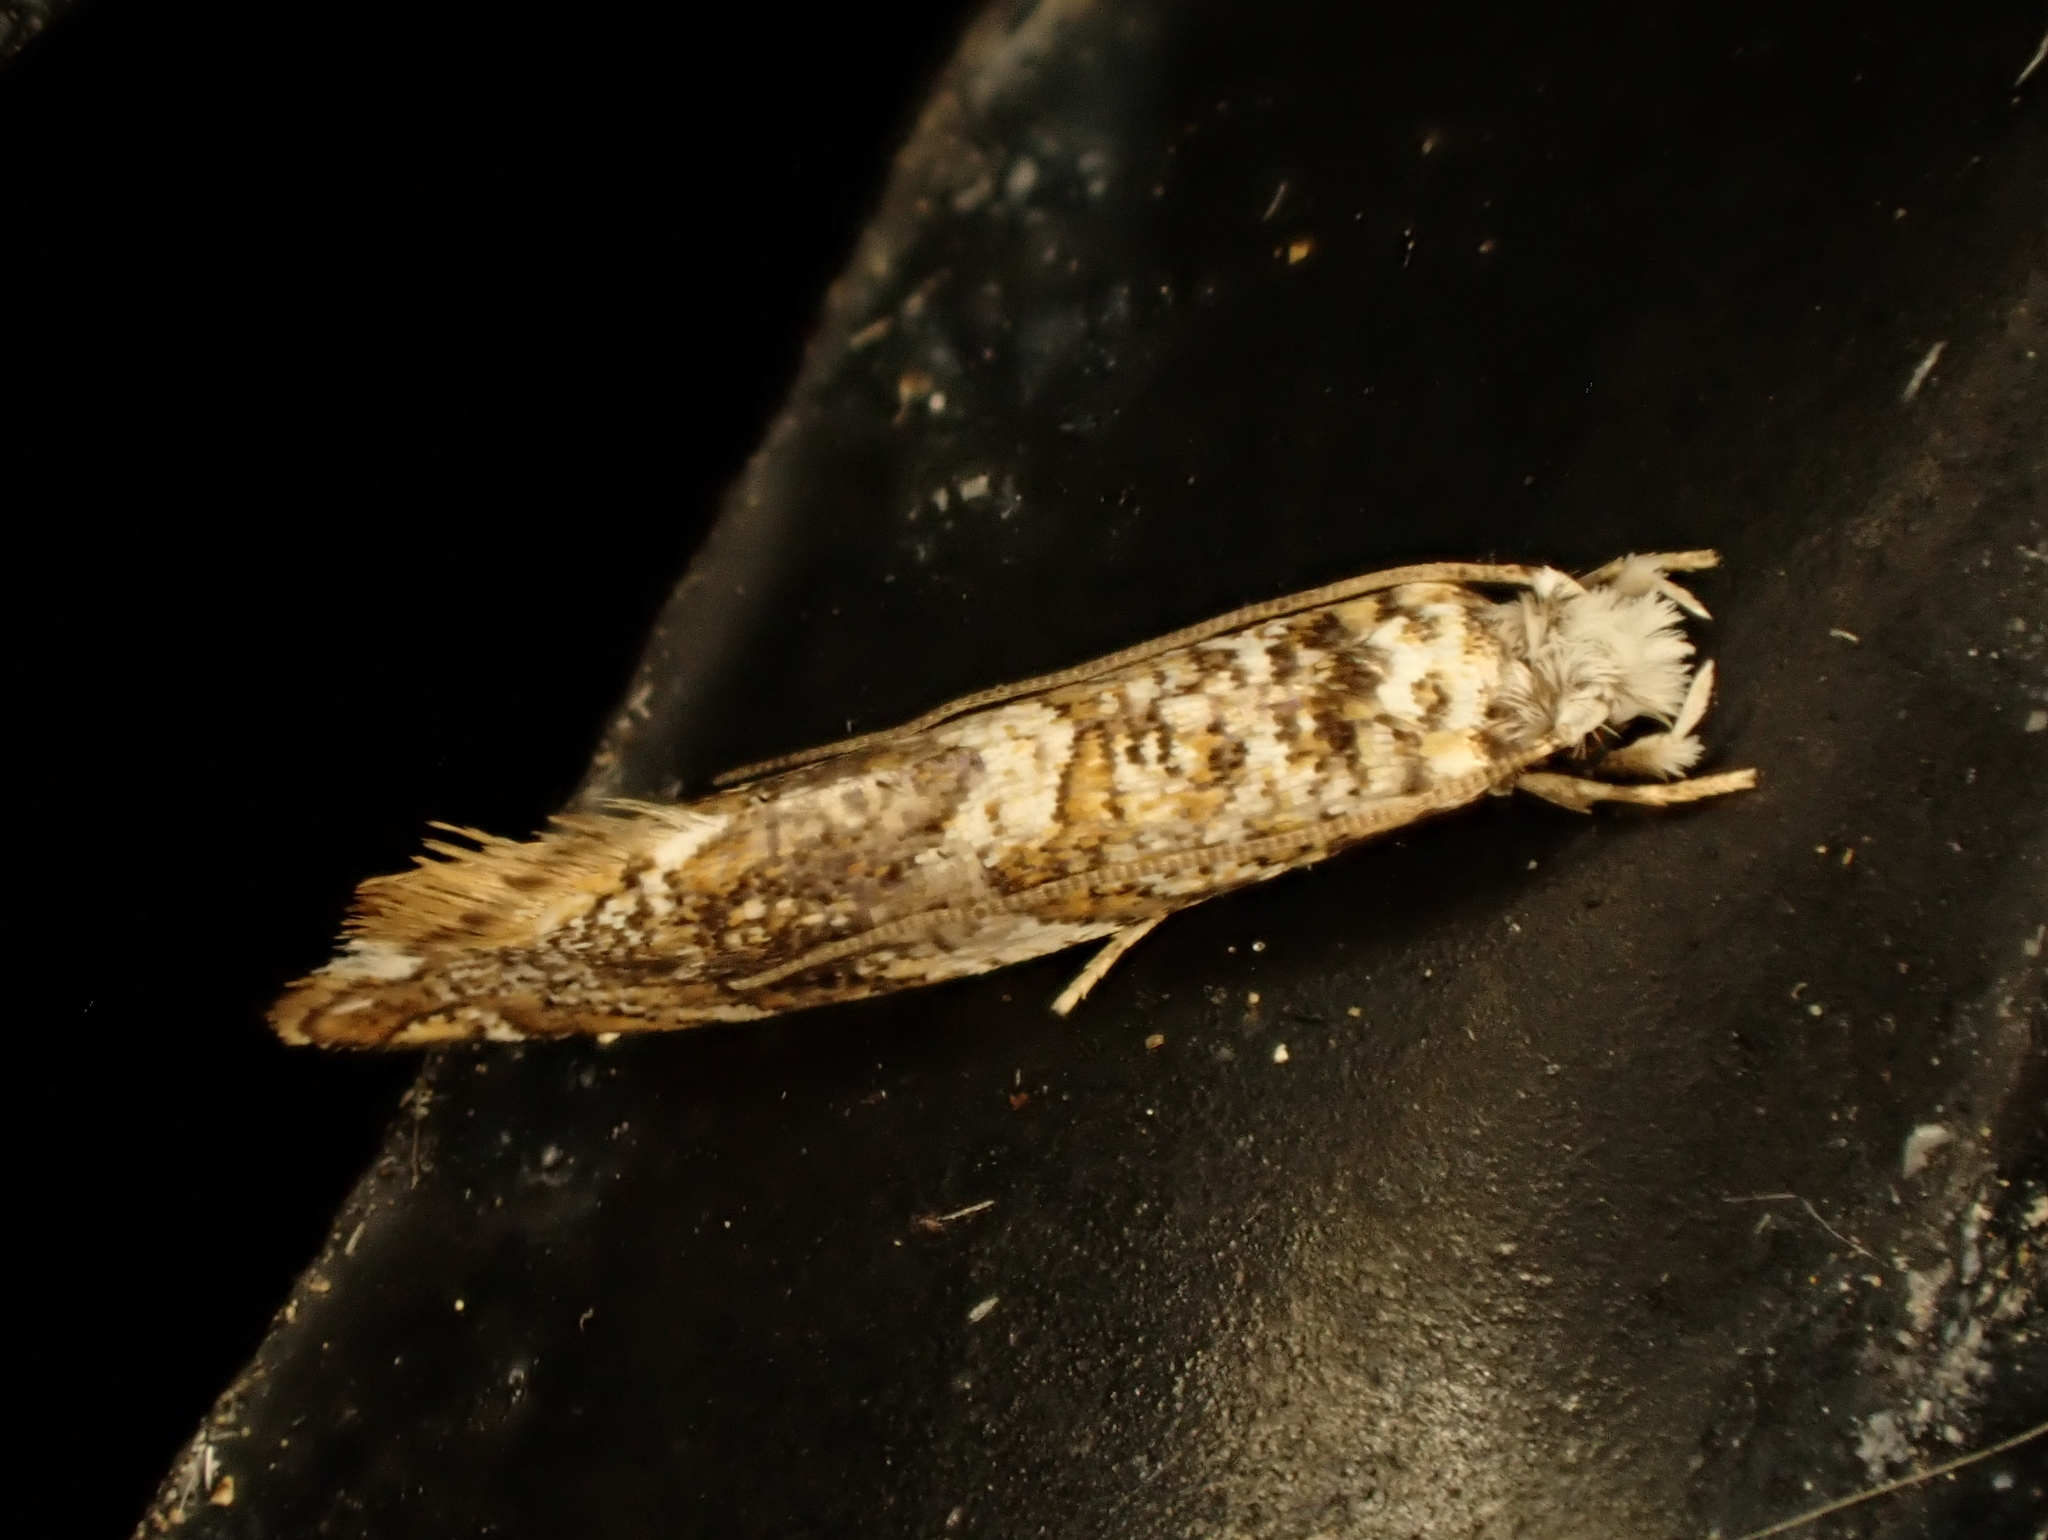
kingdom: Animalia
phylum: Arthropoda
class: Insecta
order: Lepidoptera
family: Tineidae
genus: Eschatotypa
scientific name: Eschatotypa derogatella
